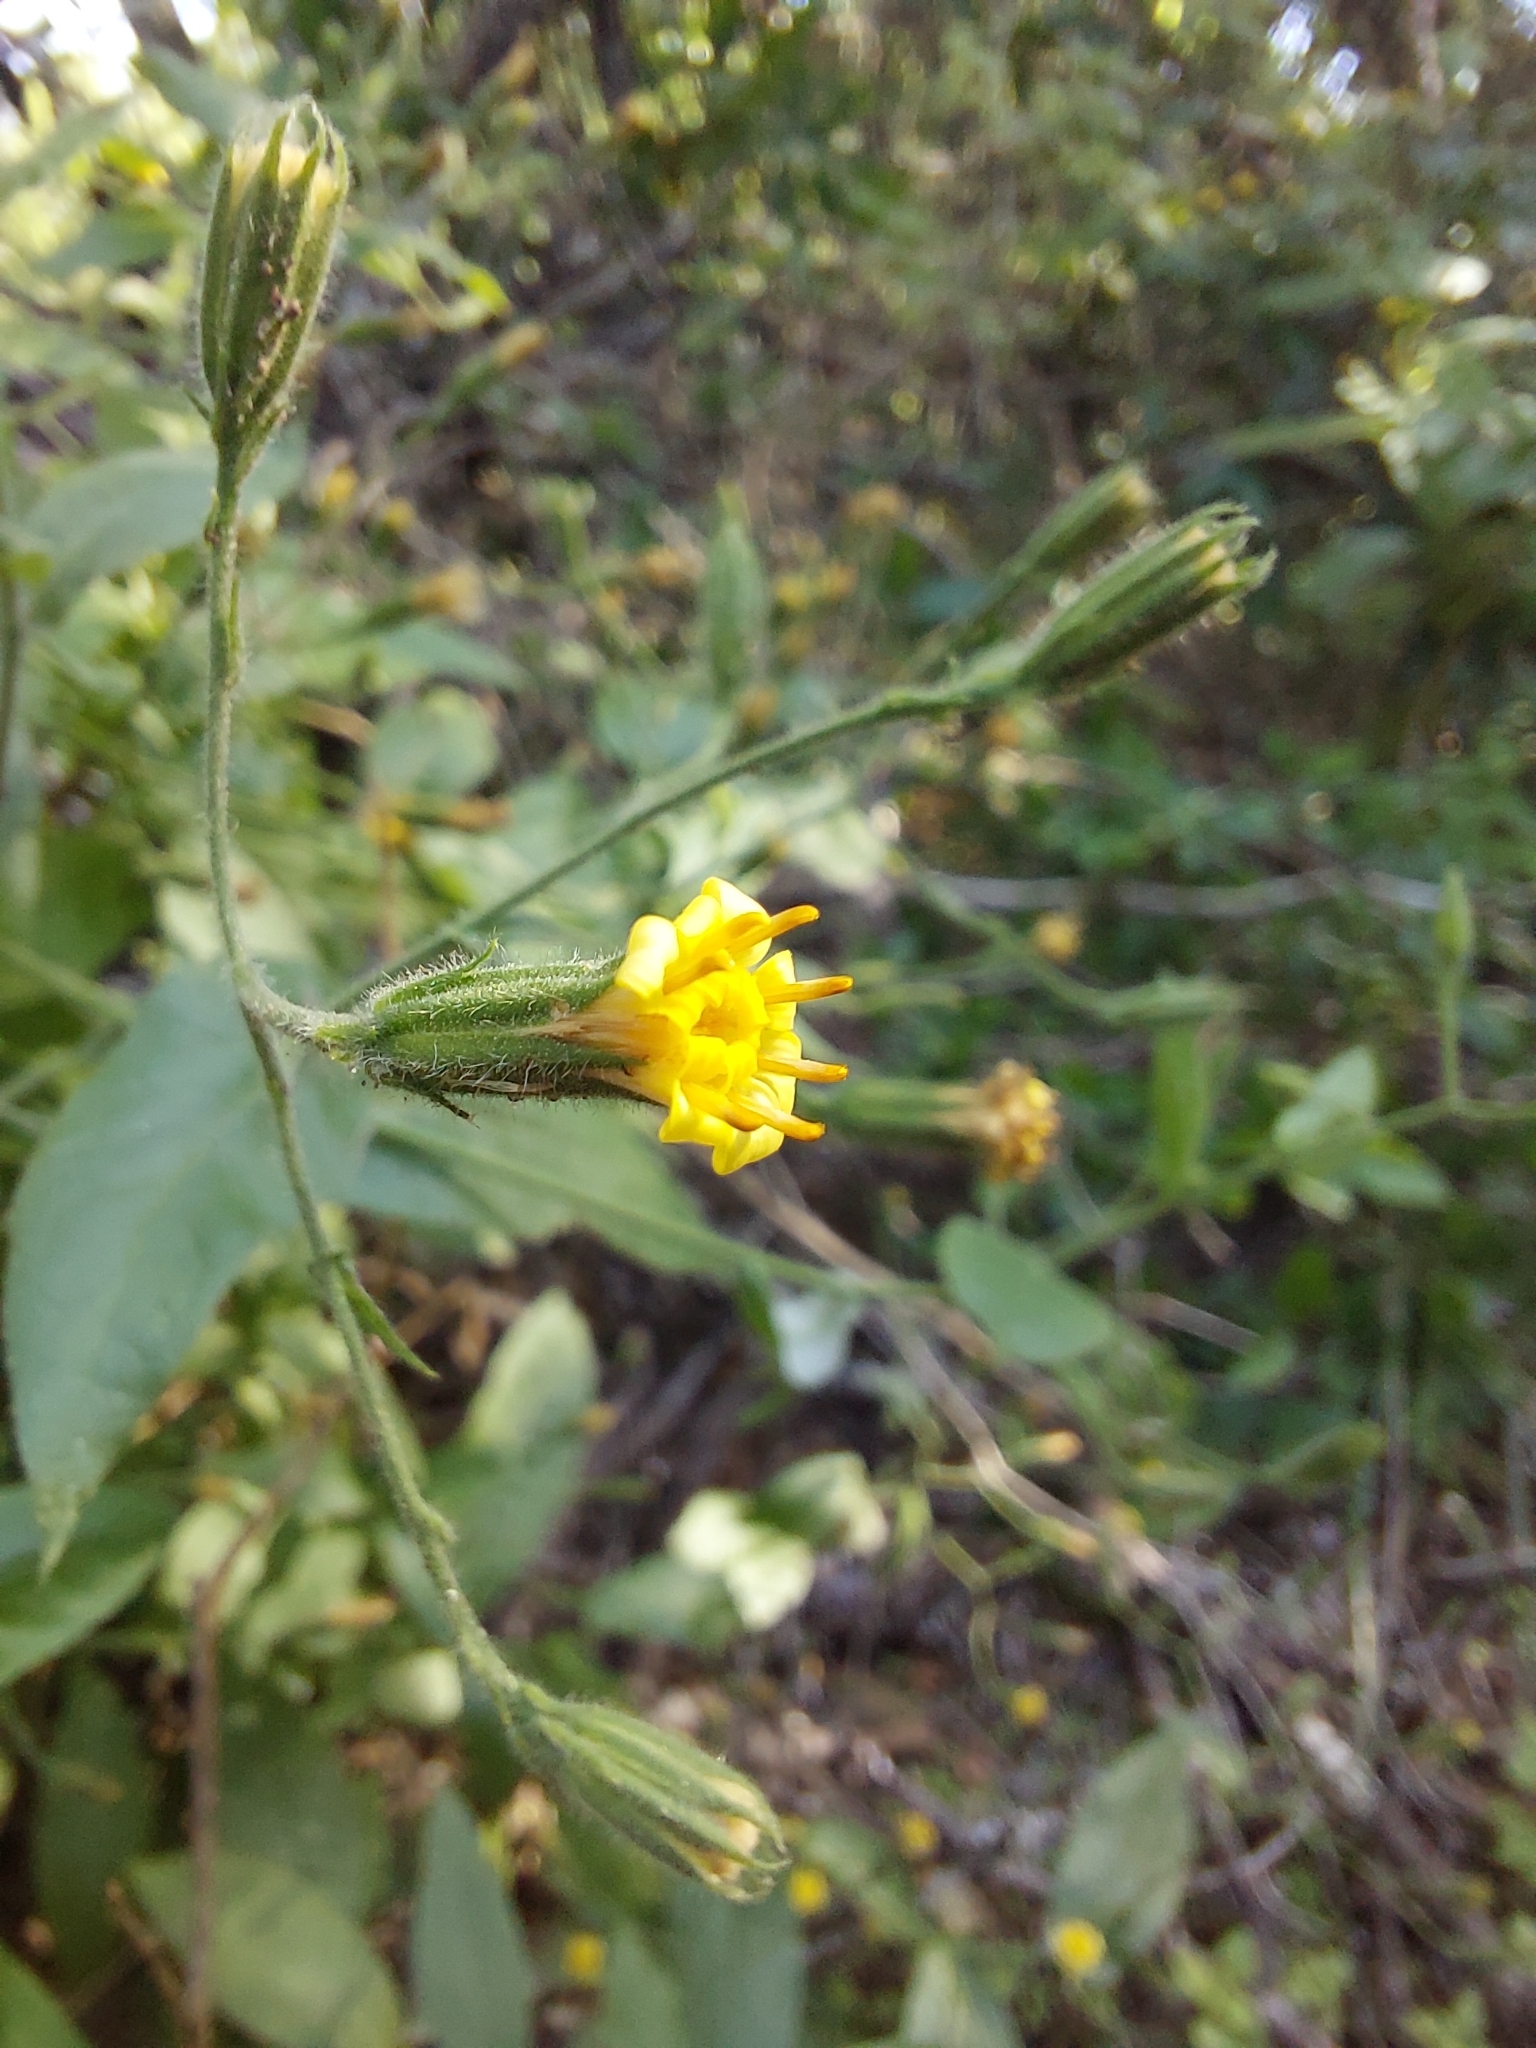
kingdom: Plantae
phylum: Tracheophyta
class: Magnoliopsida
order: Asterales
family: Asteraceae
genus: Trixis
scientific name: Trixis divaricata
